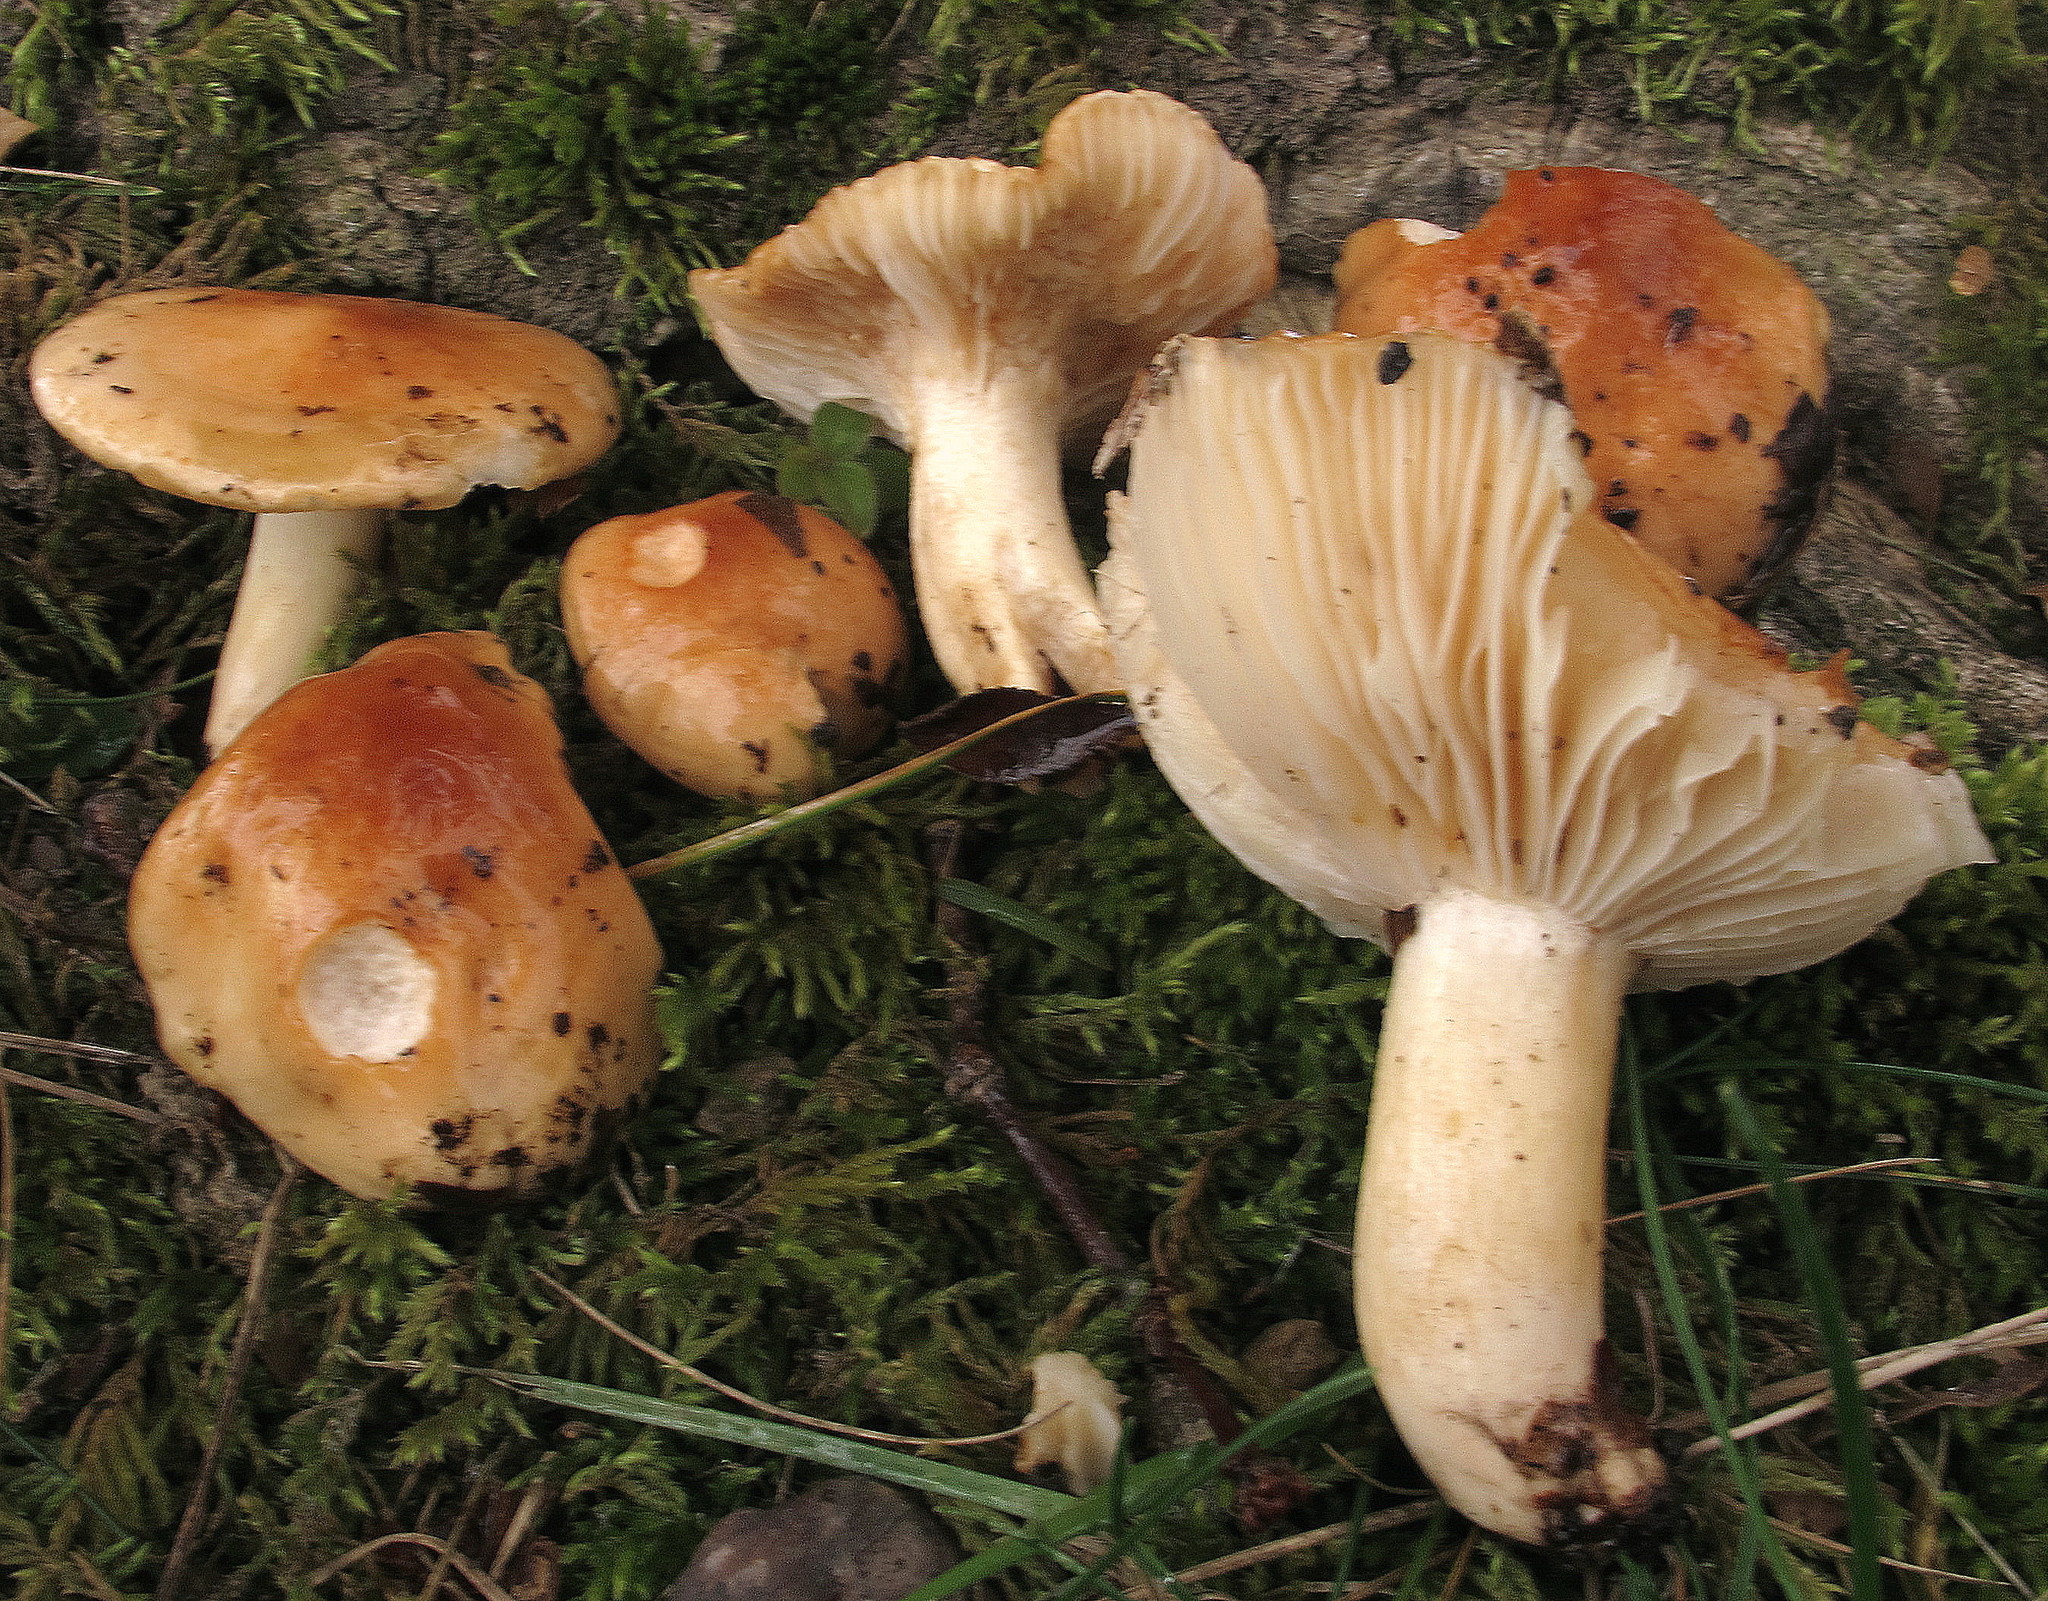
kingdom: Fungi
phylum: Basidiomycota
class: Agaricomycetes
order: Agaricales
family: Hygrophoraceae
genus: Hygrophorus
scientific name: Hygrophorus subsalmonius
